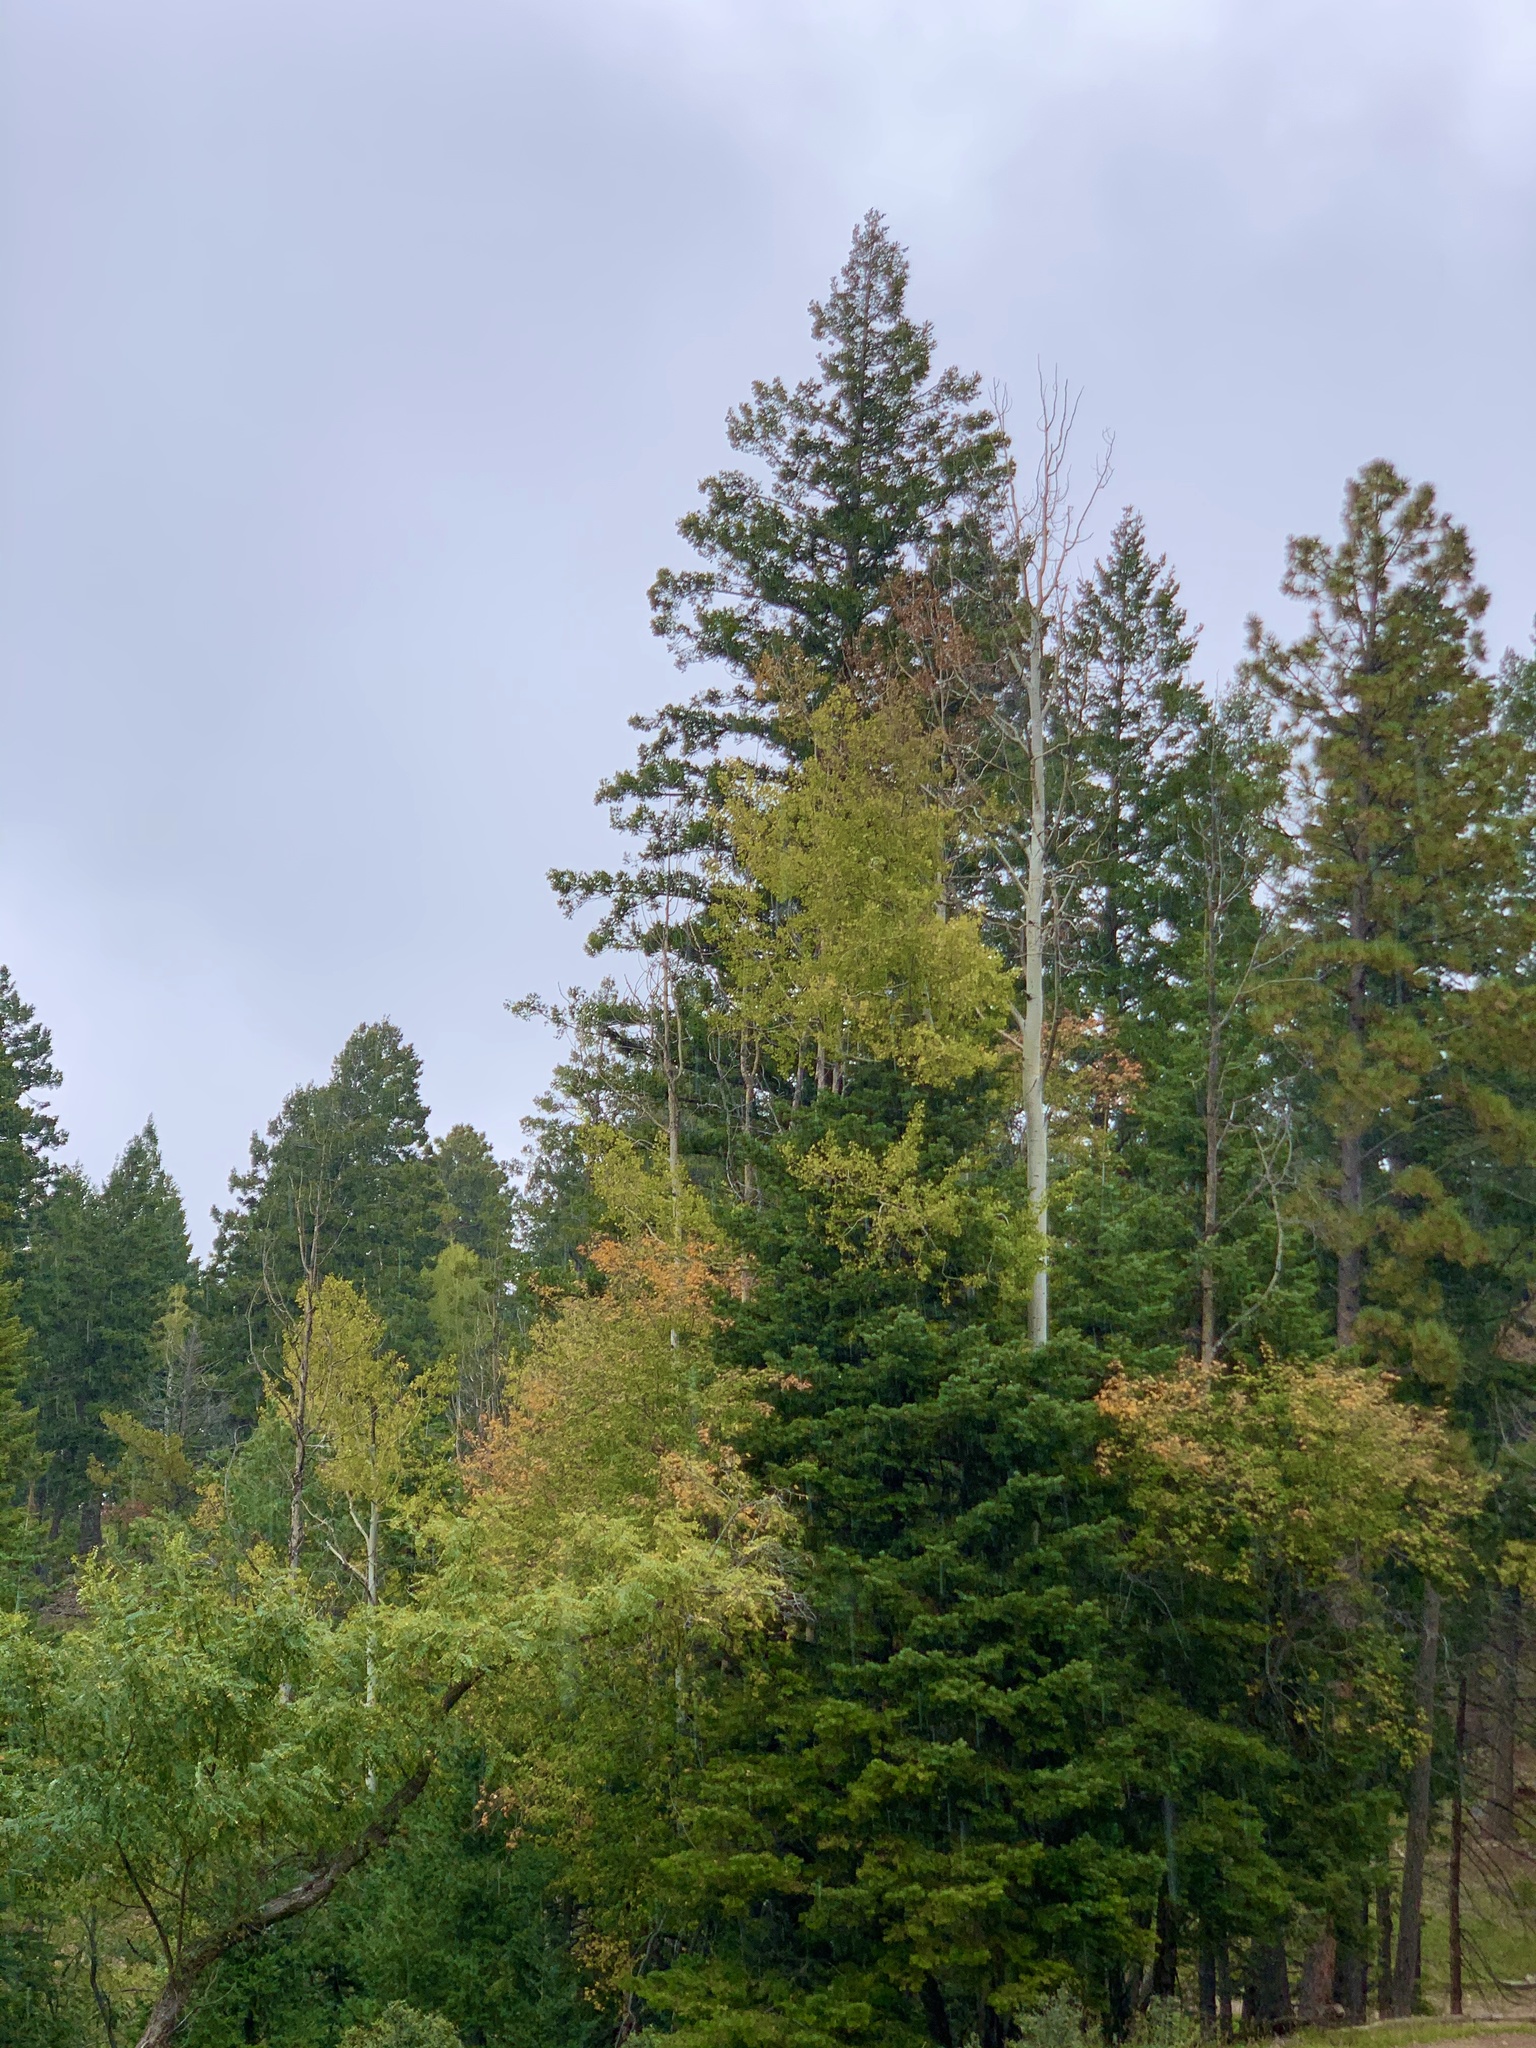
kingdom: Plantae
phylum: Tracheophyta
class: Magnoliopsida
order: Malpighiales
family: Salicaceae
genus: Populus
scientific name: Populus tremuloides
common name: Quaking aspen
